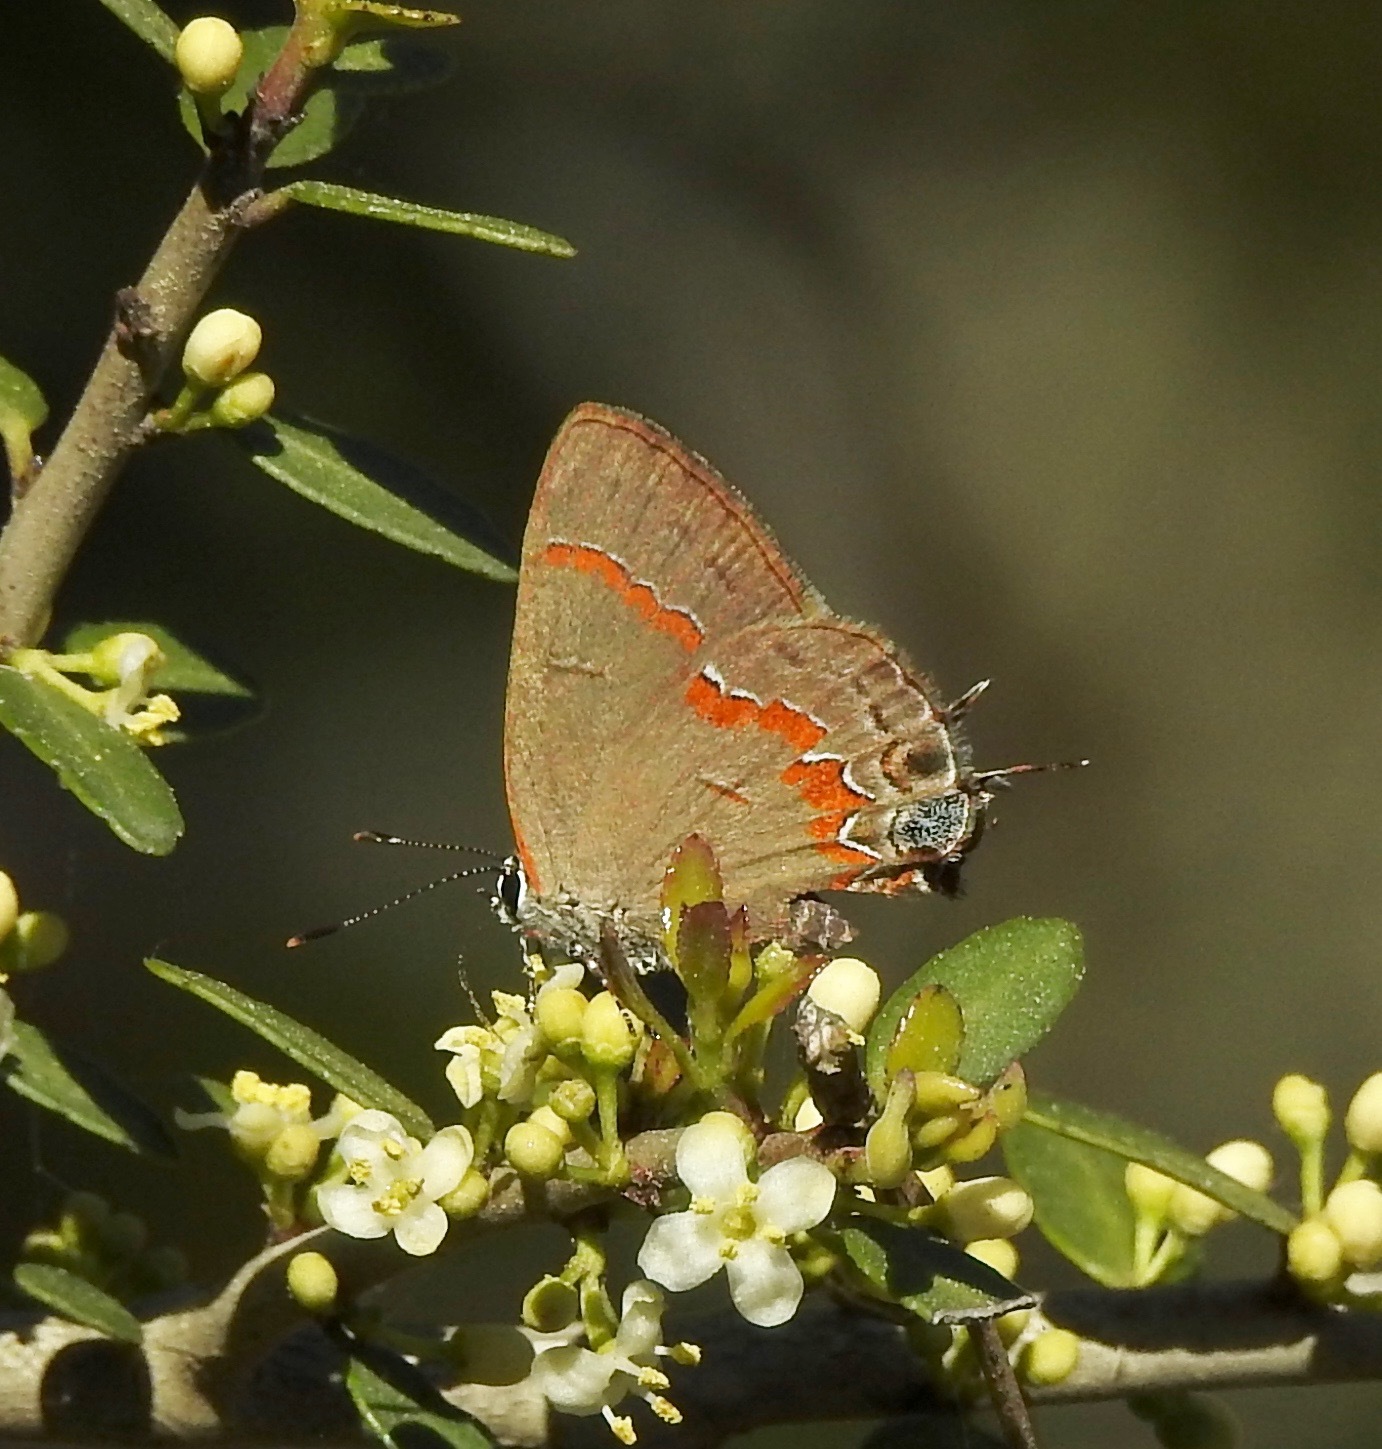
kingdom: Animalia
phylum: Arthropoda
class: Insecta
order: Lepidoptera
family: Lycaenidae
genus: Calycopis
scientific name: Calycopis cecrops
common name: Red-banded hairstreak
